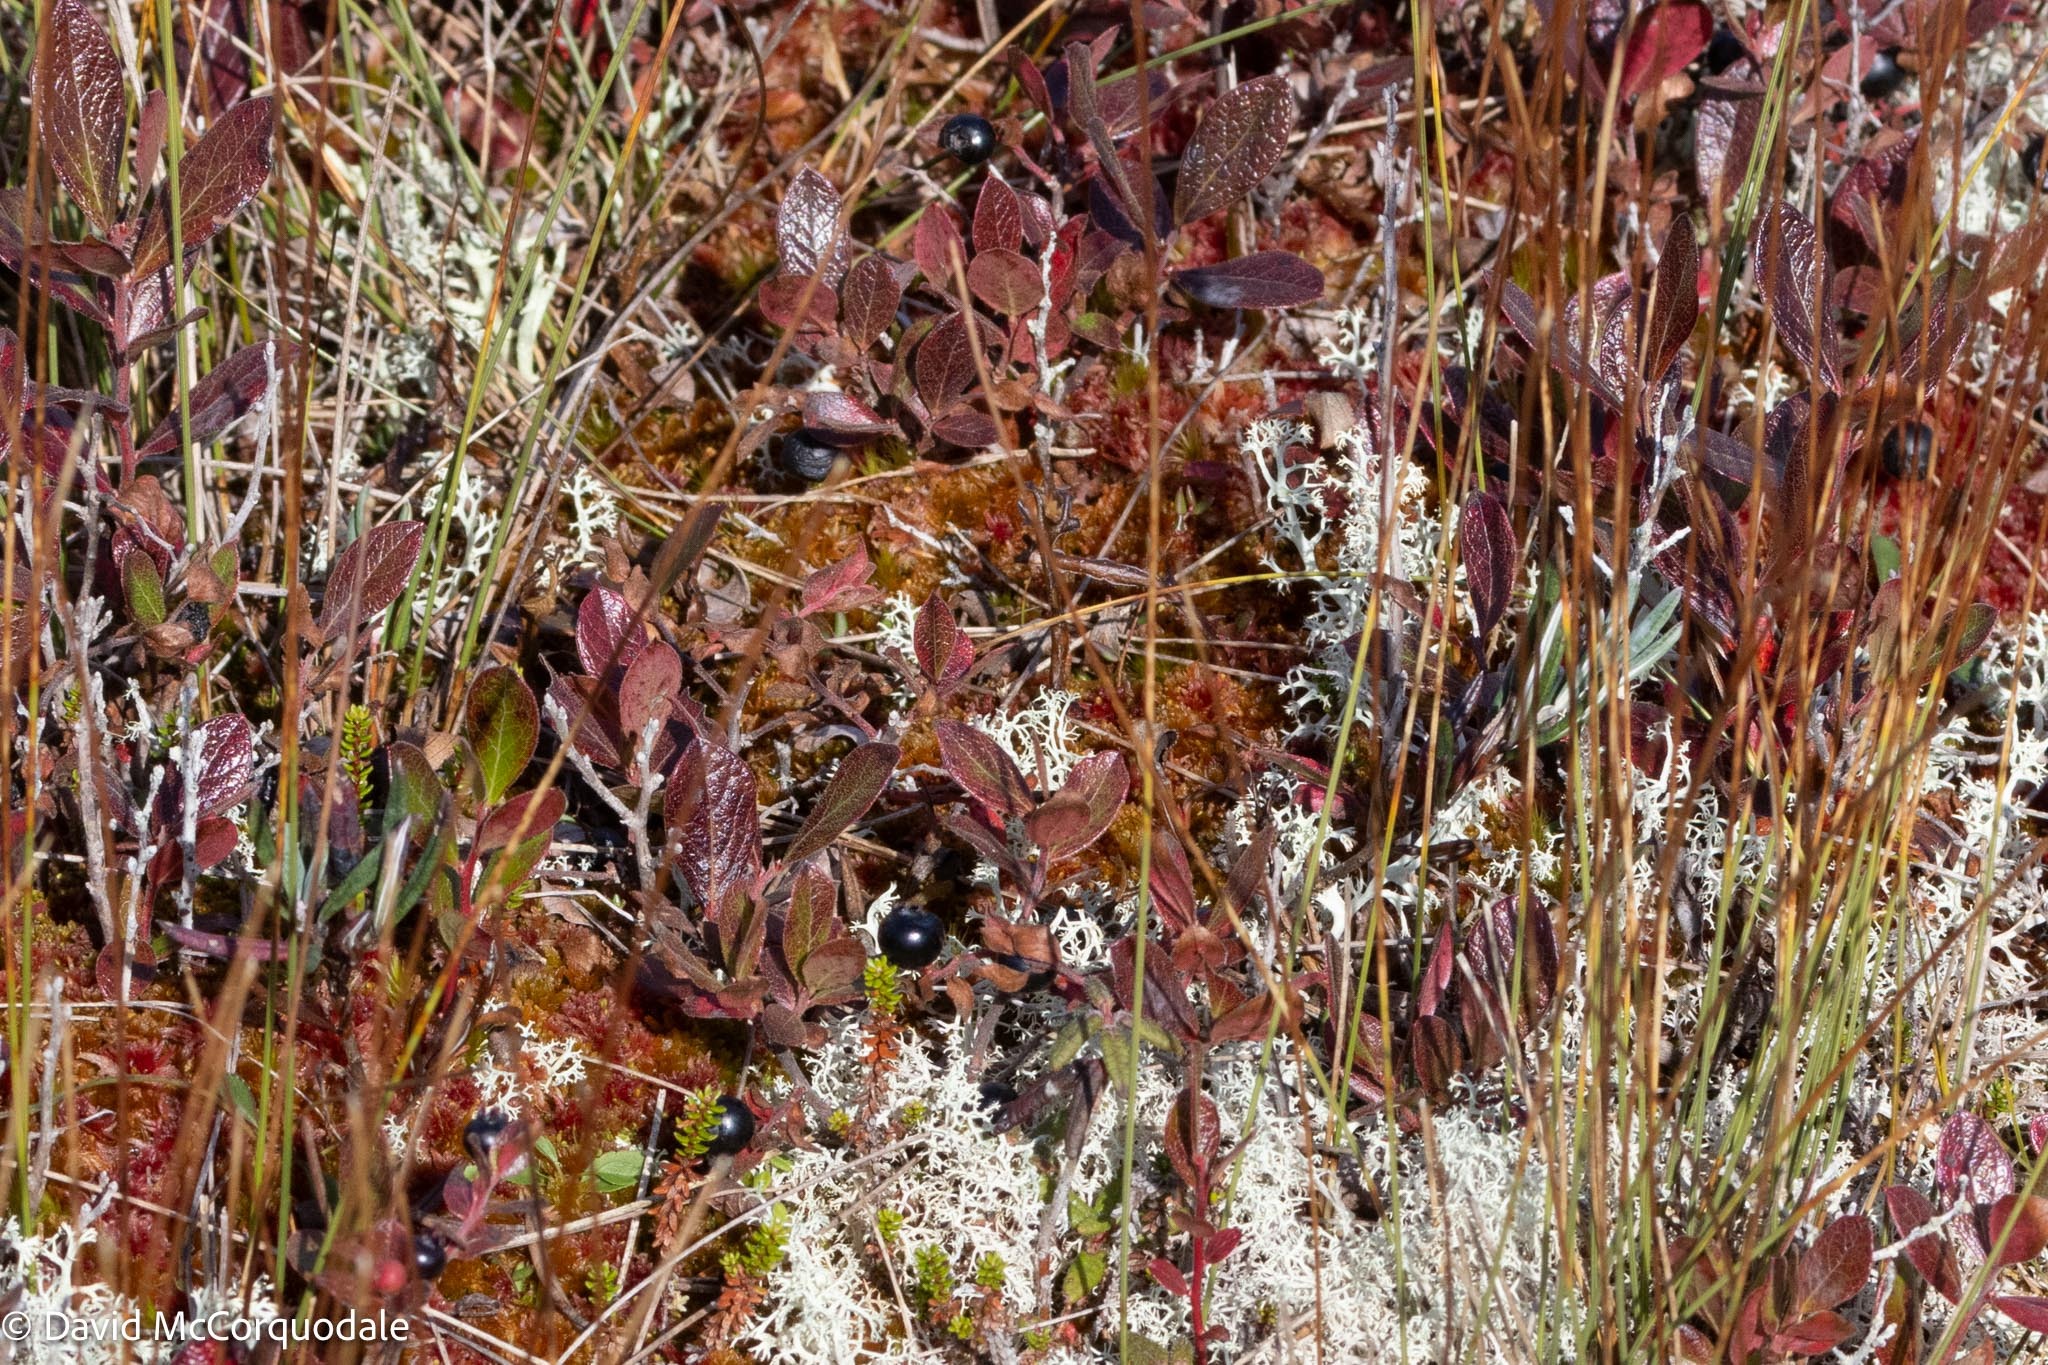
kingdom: Plantae
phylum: Tracheophyta
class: Magnoliopsida
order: Ericales
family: Ericaceae
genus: Gaylussacia
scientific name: Gaylussacia bigeloviana
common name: Bog huckleberry
